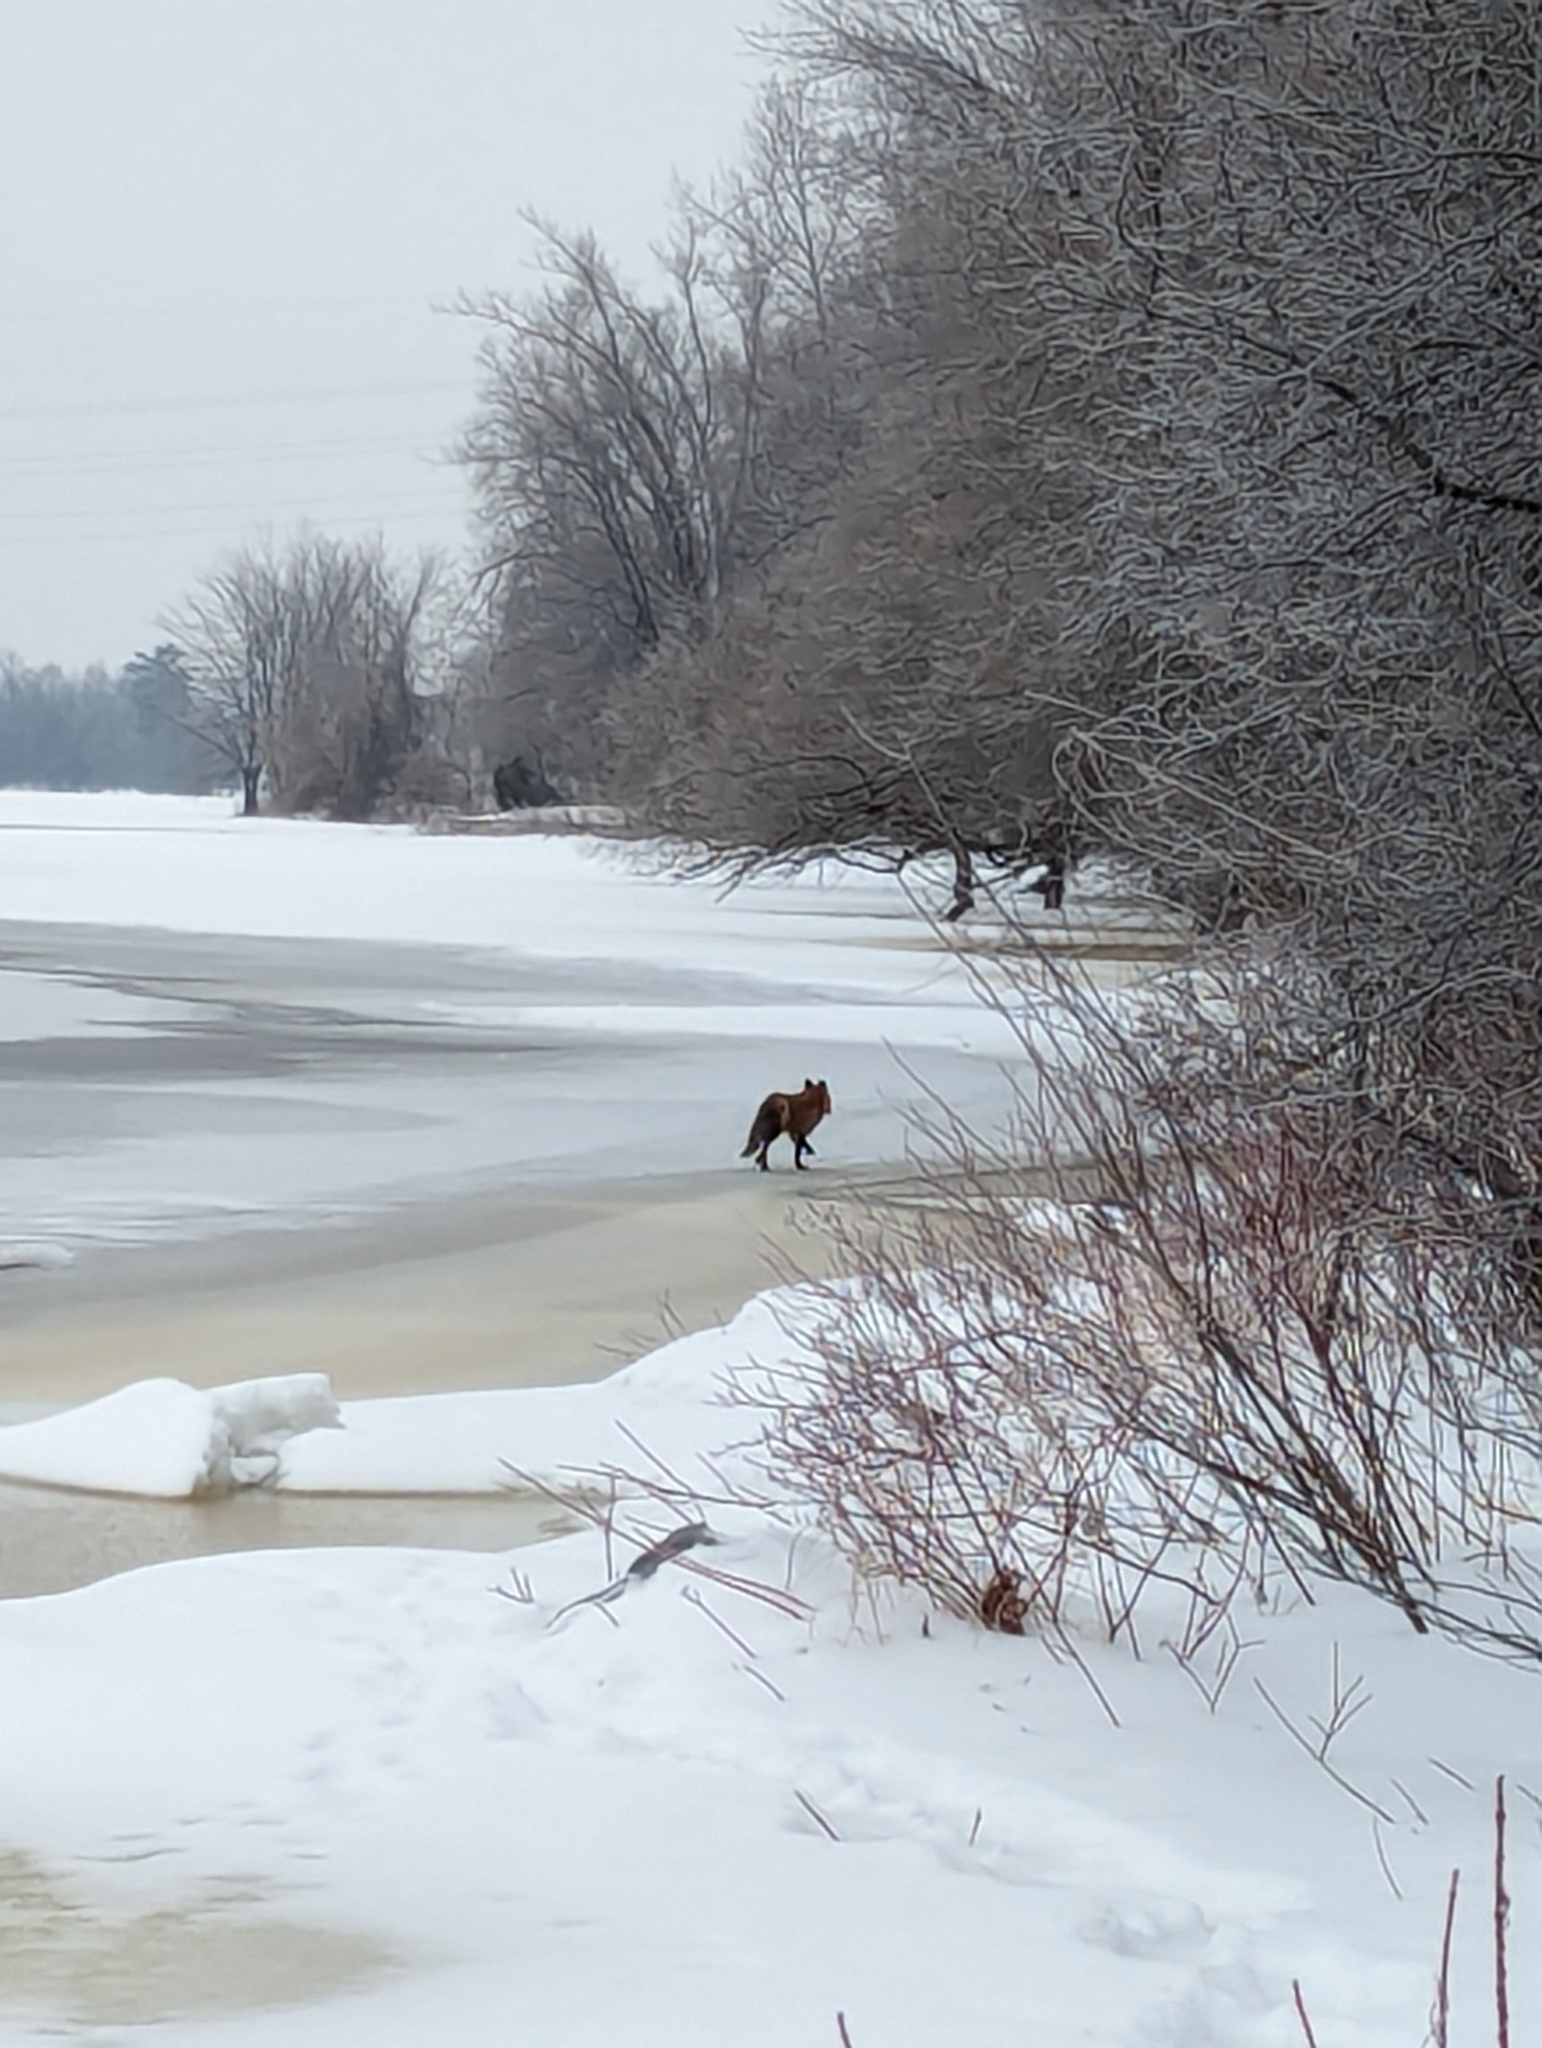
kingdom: Animalia
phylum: Chordata
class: Mammalia
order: Carnivora
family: Canidae
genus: Vulpes
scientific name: Vulpes vulpes
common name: Red fox
